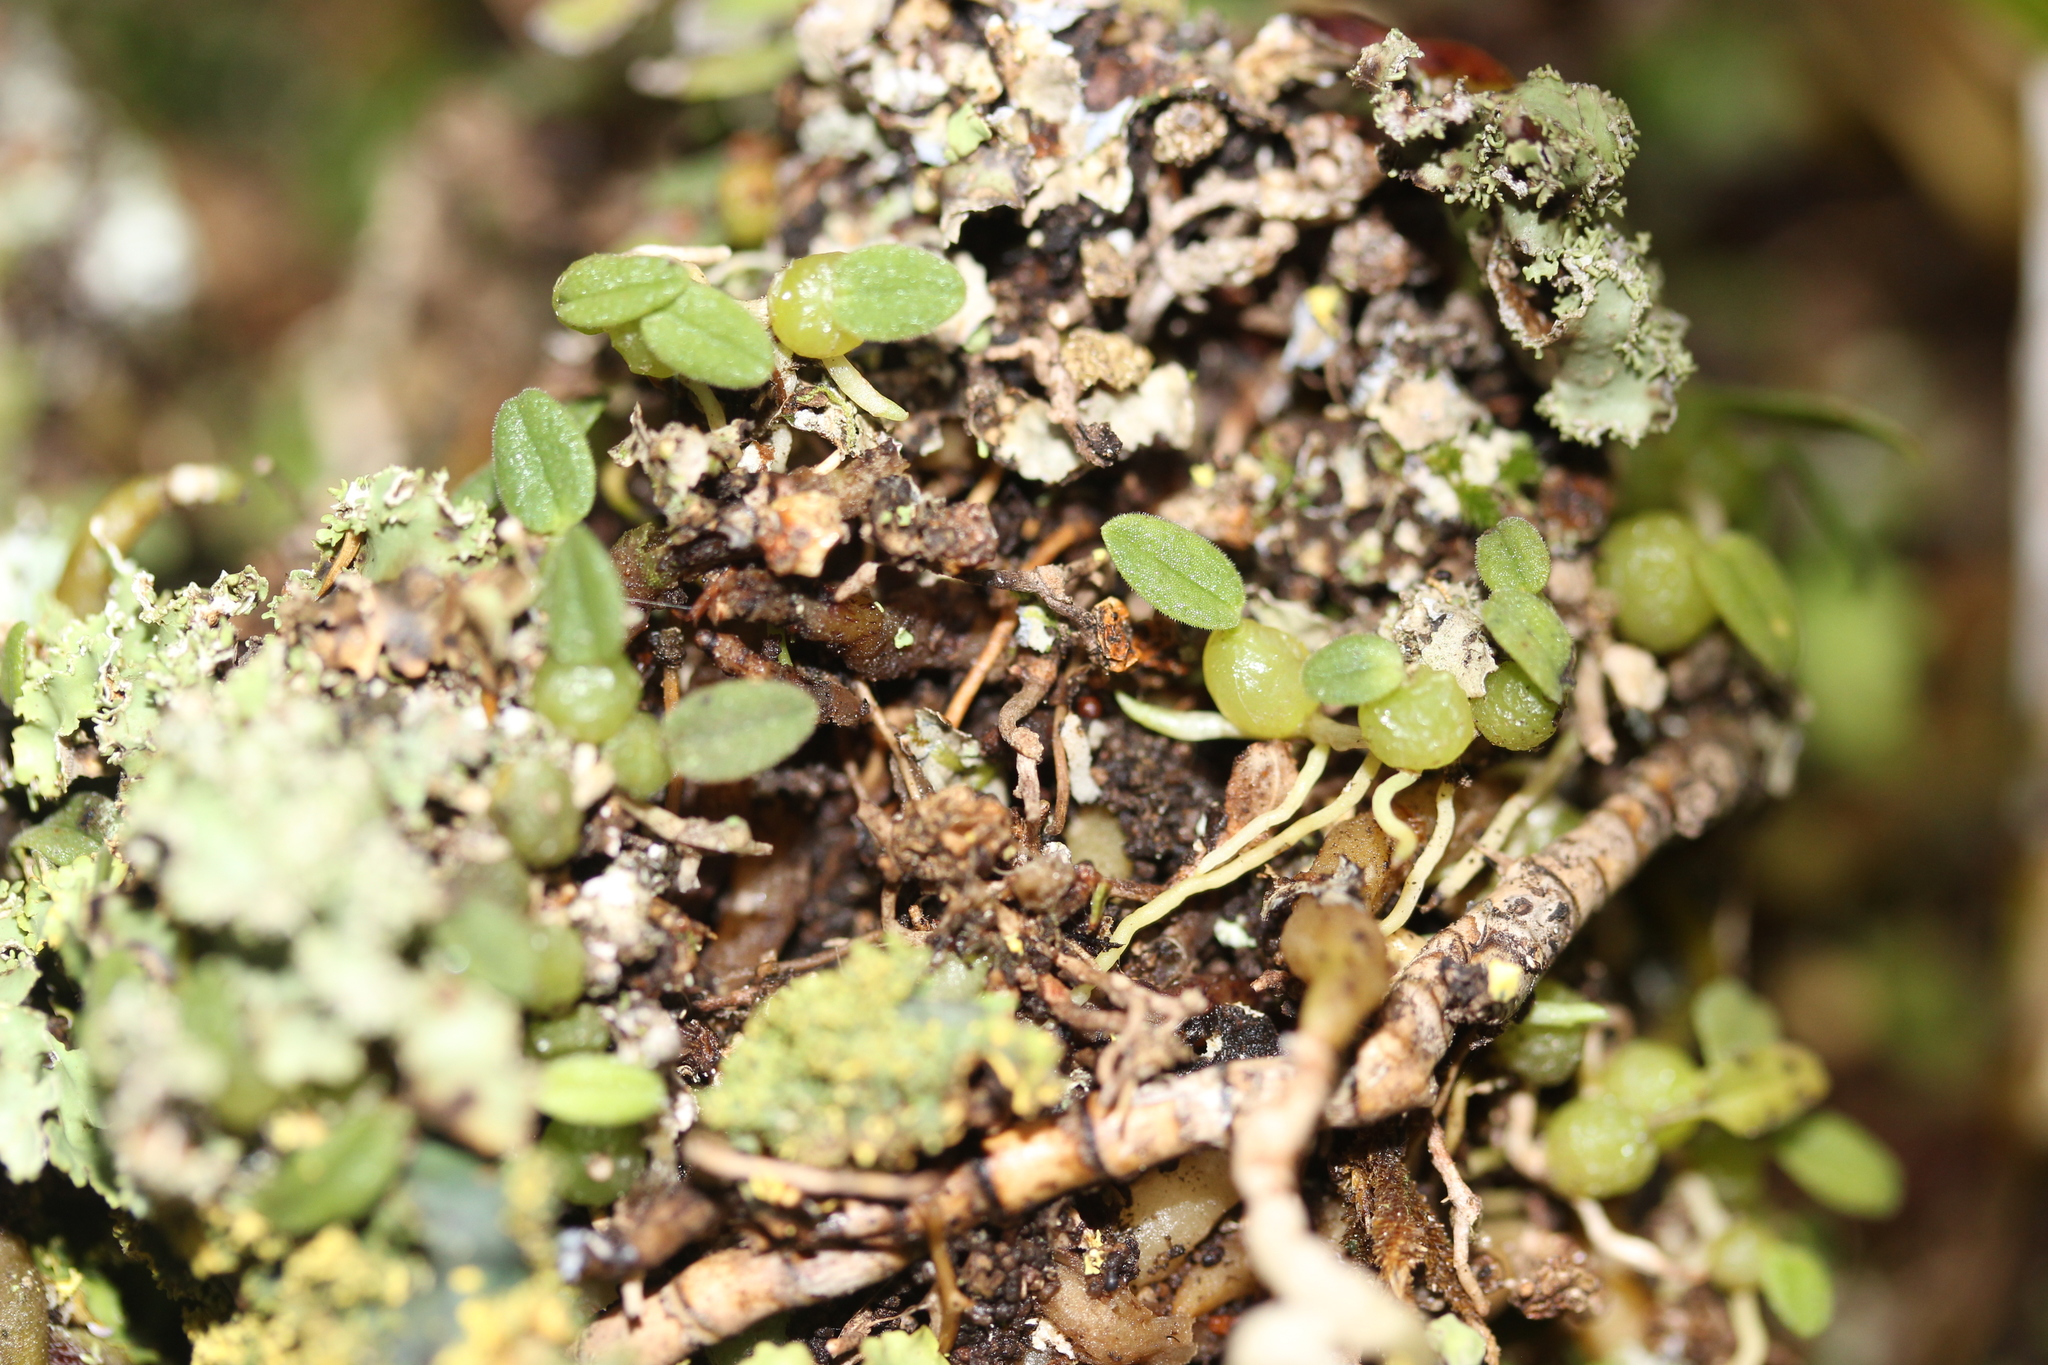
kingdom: Plantae
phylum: Tracheophyta
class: Liliopsida
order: Asparagales
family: Orchidaceae
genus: Bulbophyllum
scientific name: Bulbophyllum pygmaeum
